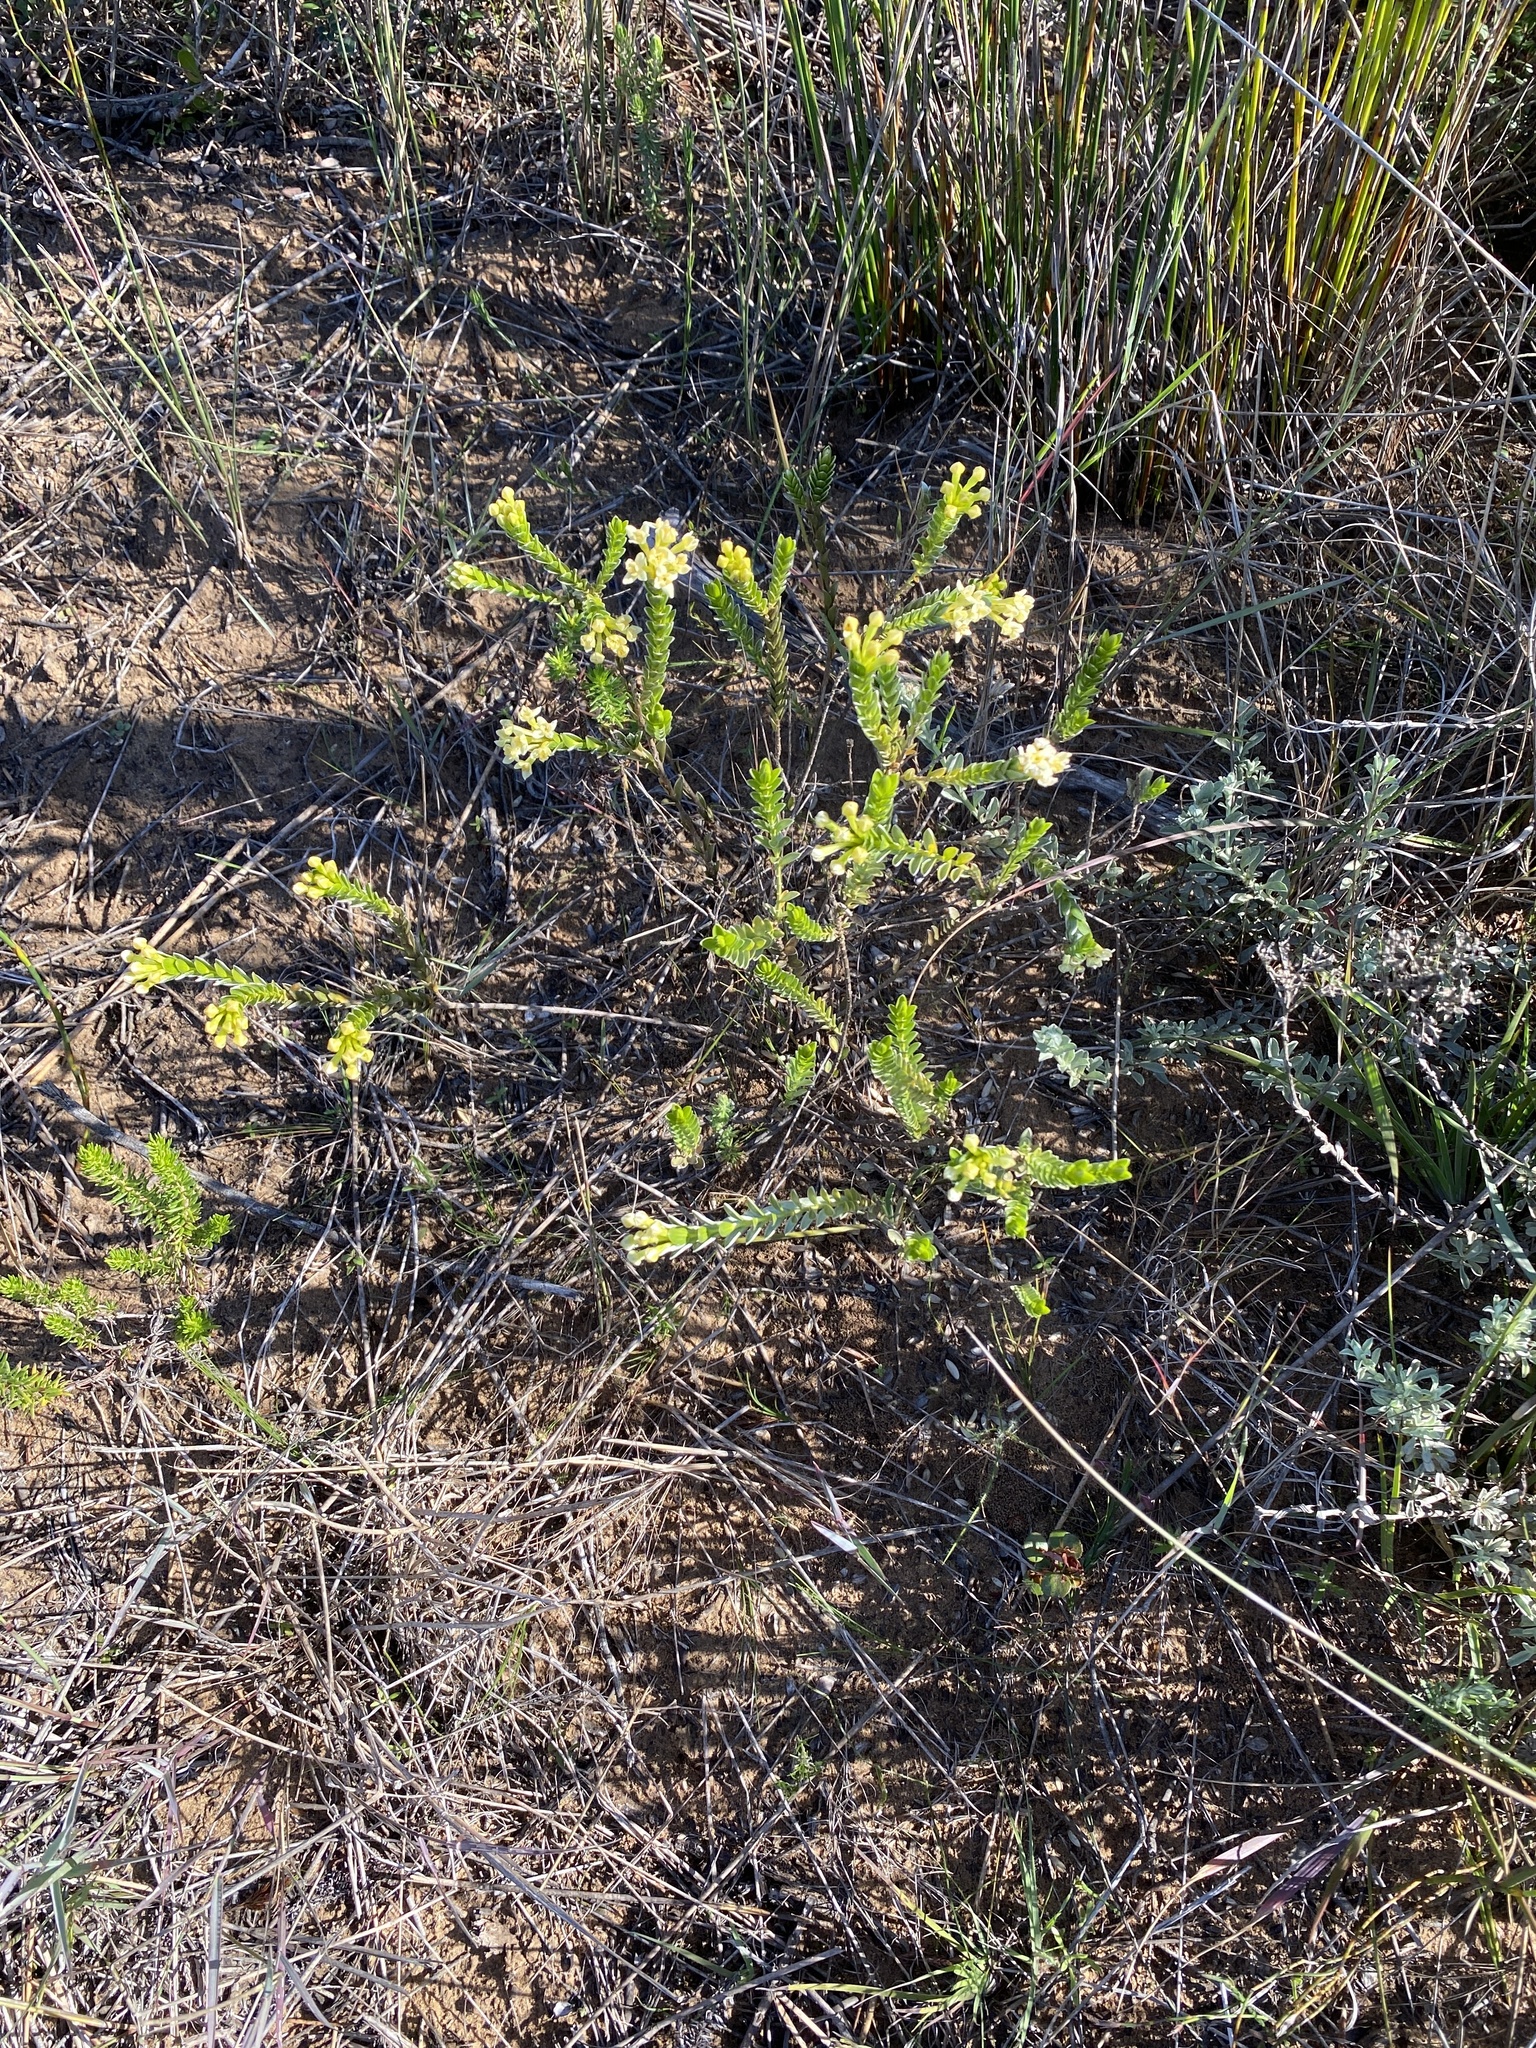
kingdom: Plantae
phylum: Tracheophyta
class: Magnoliopsida
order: Malvales
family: Thymelaeaceae
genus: Gnidia
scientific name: Gnidia chrysophylla
